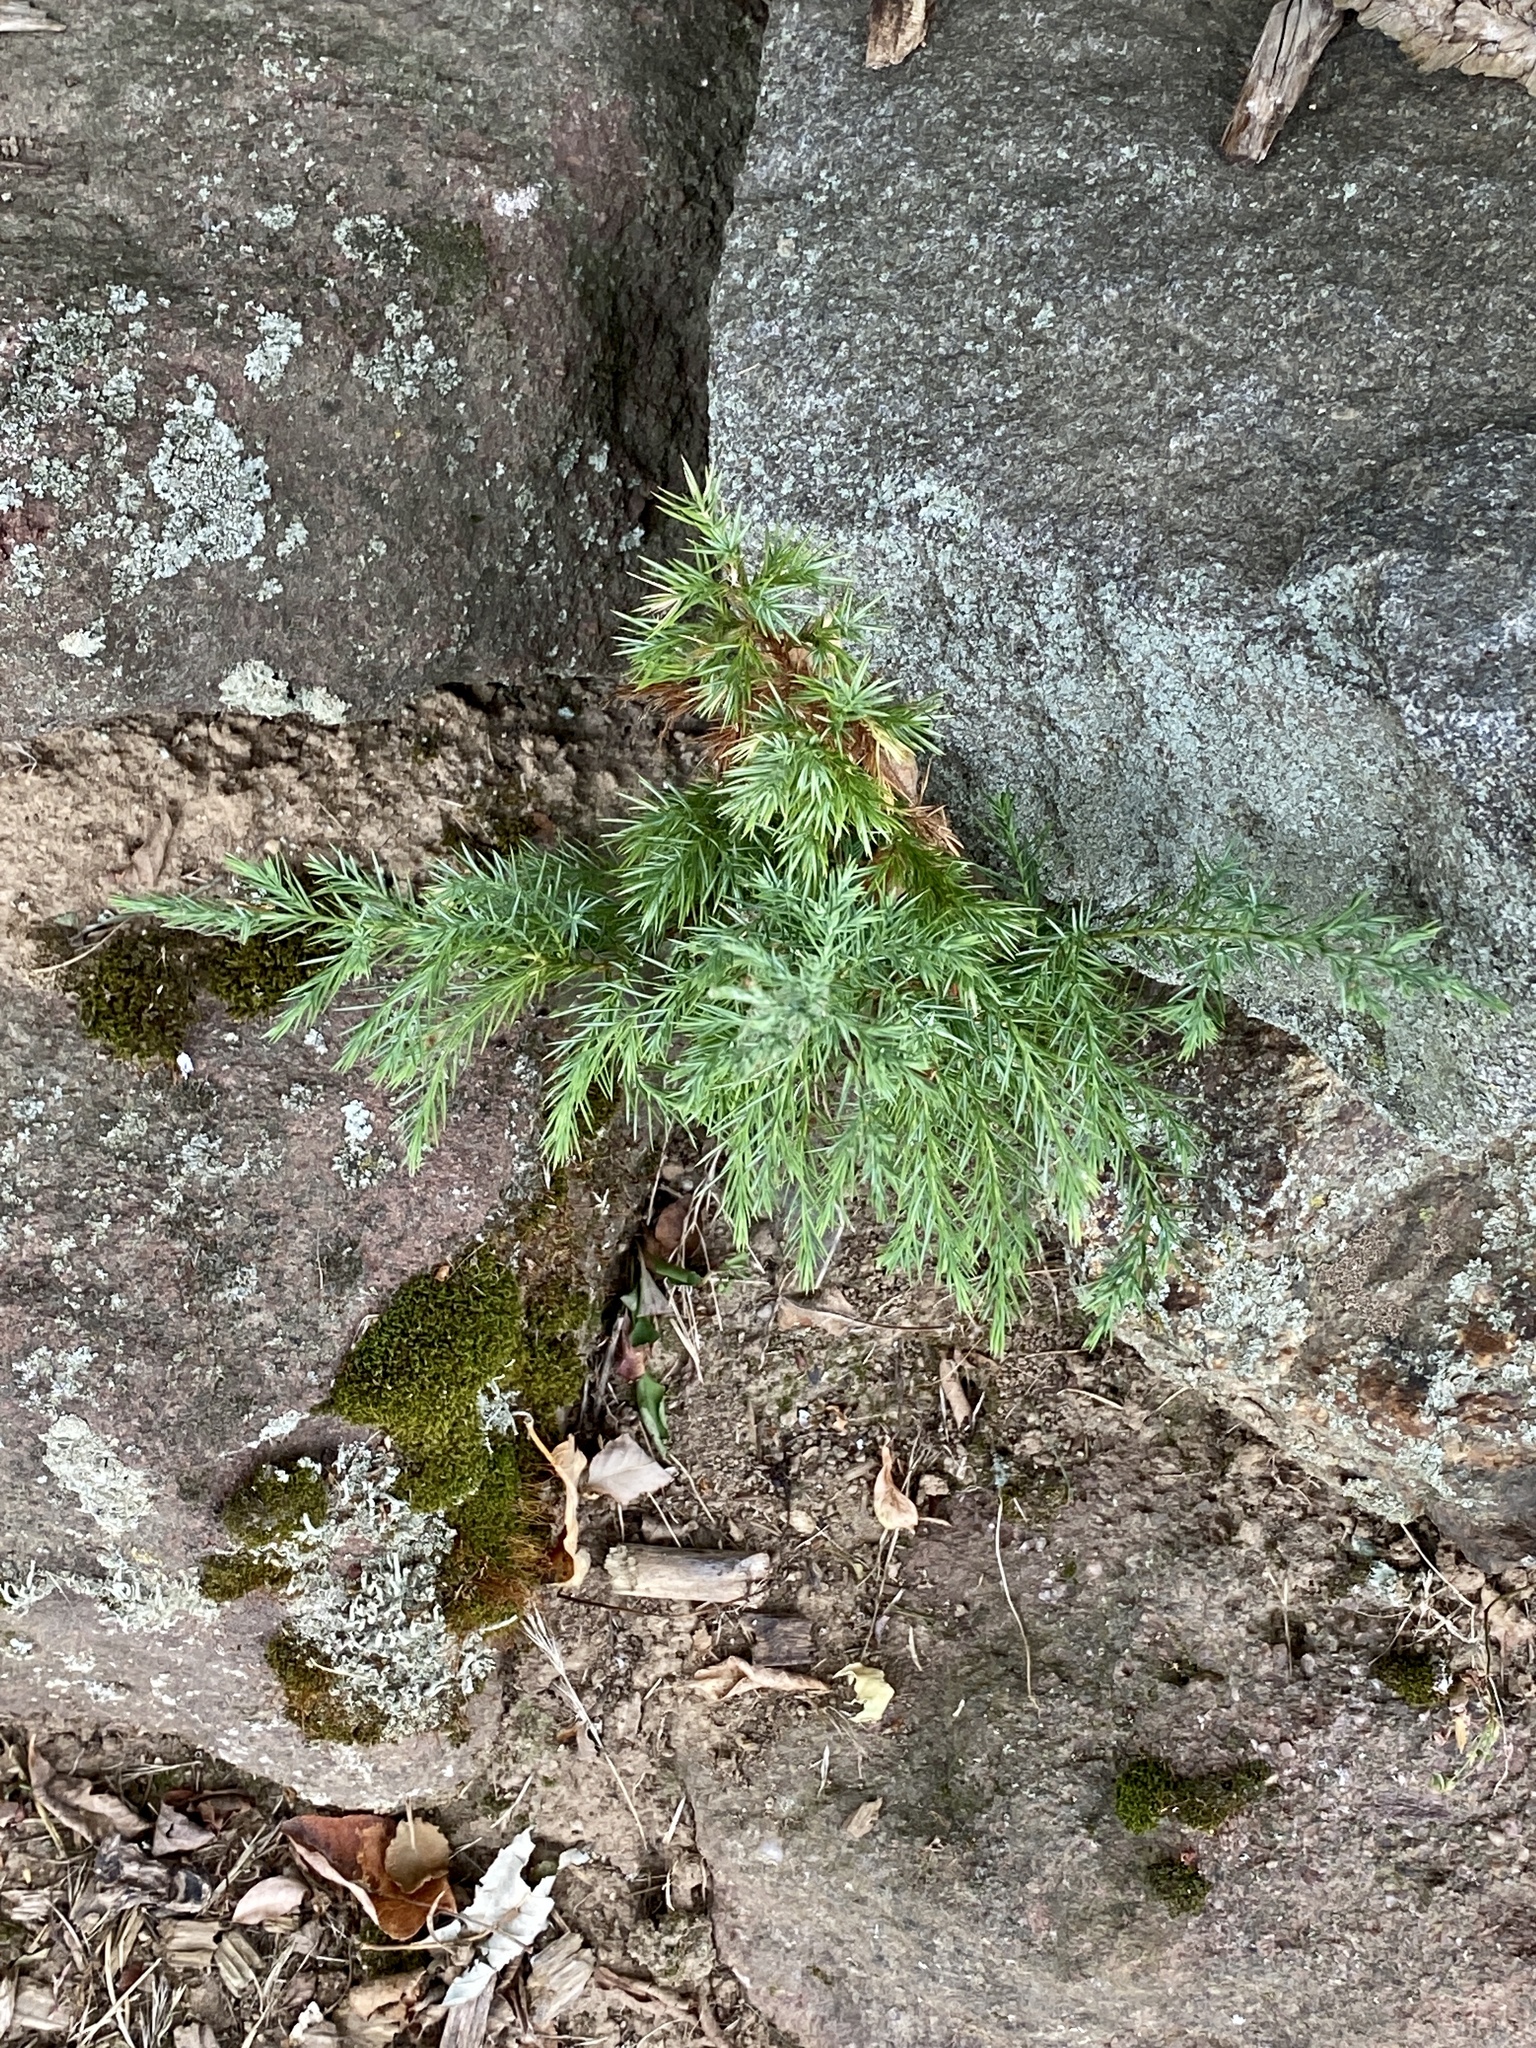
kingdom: Plantae
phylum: Tracheophyta
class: Pinopsida
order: Pinales
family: Cupressaceae
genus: Juniperus
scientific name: Juniperus virginiana
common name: Red juniper
